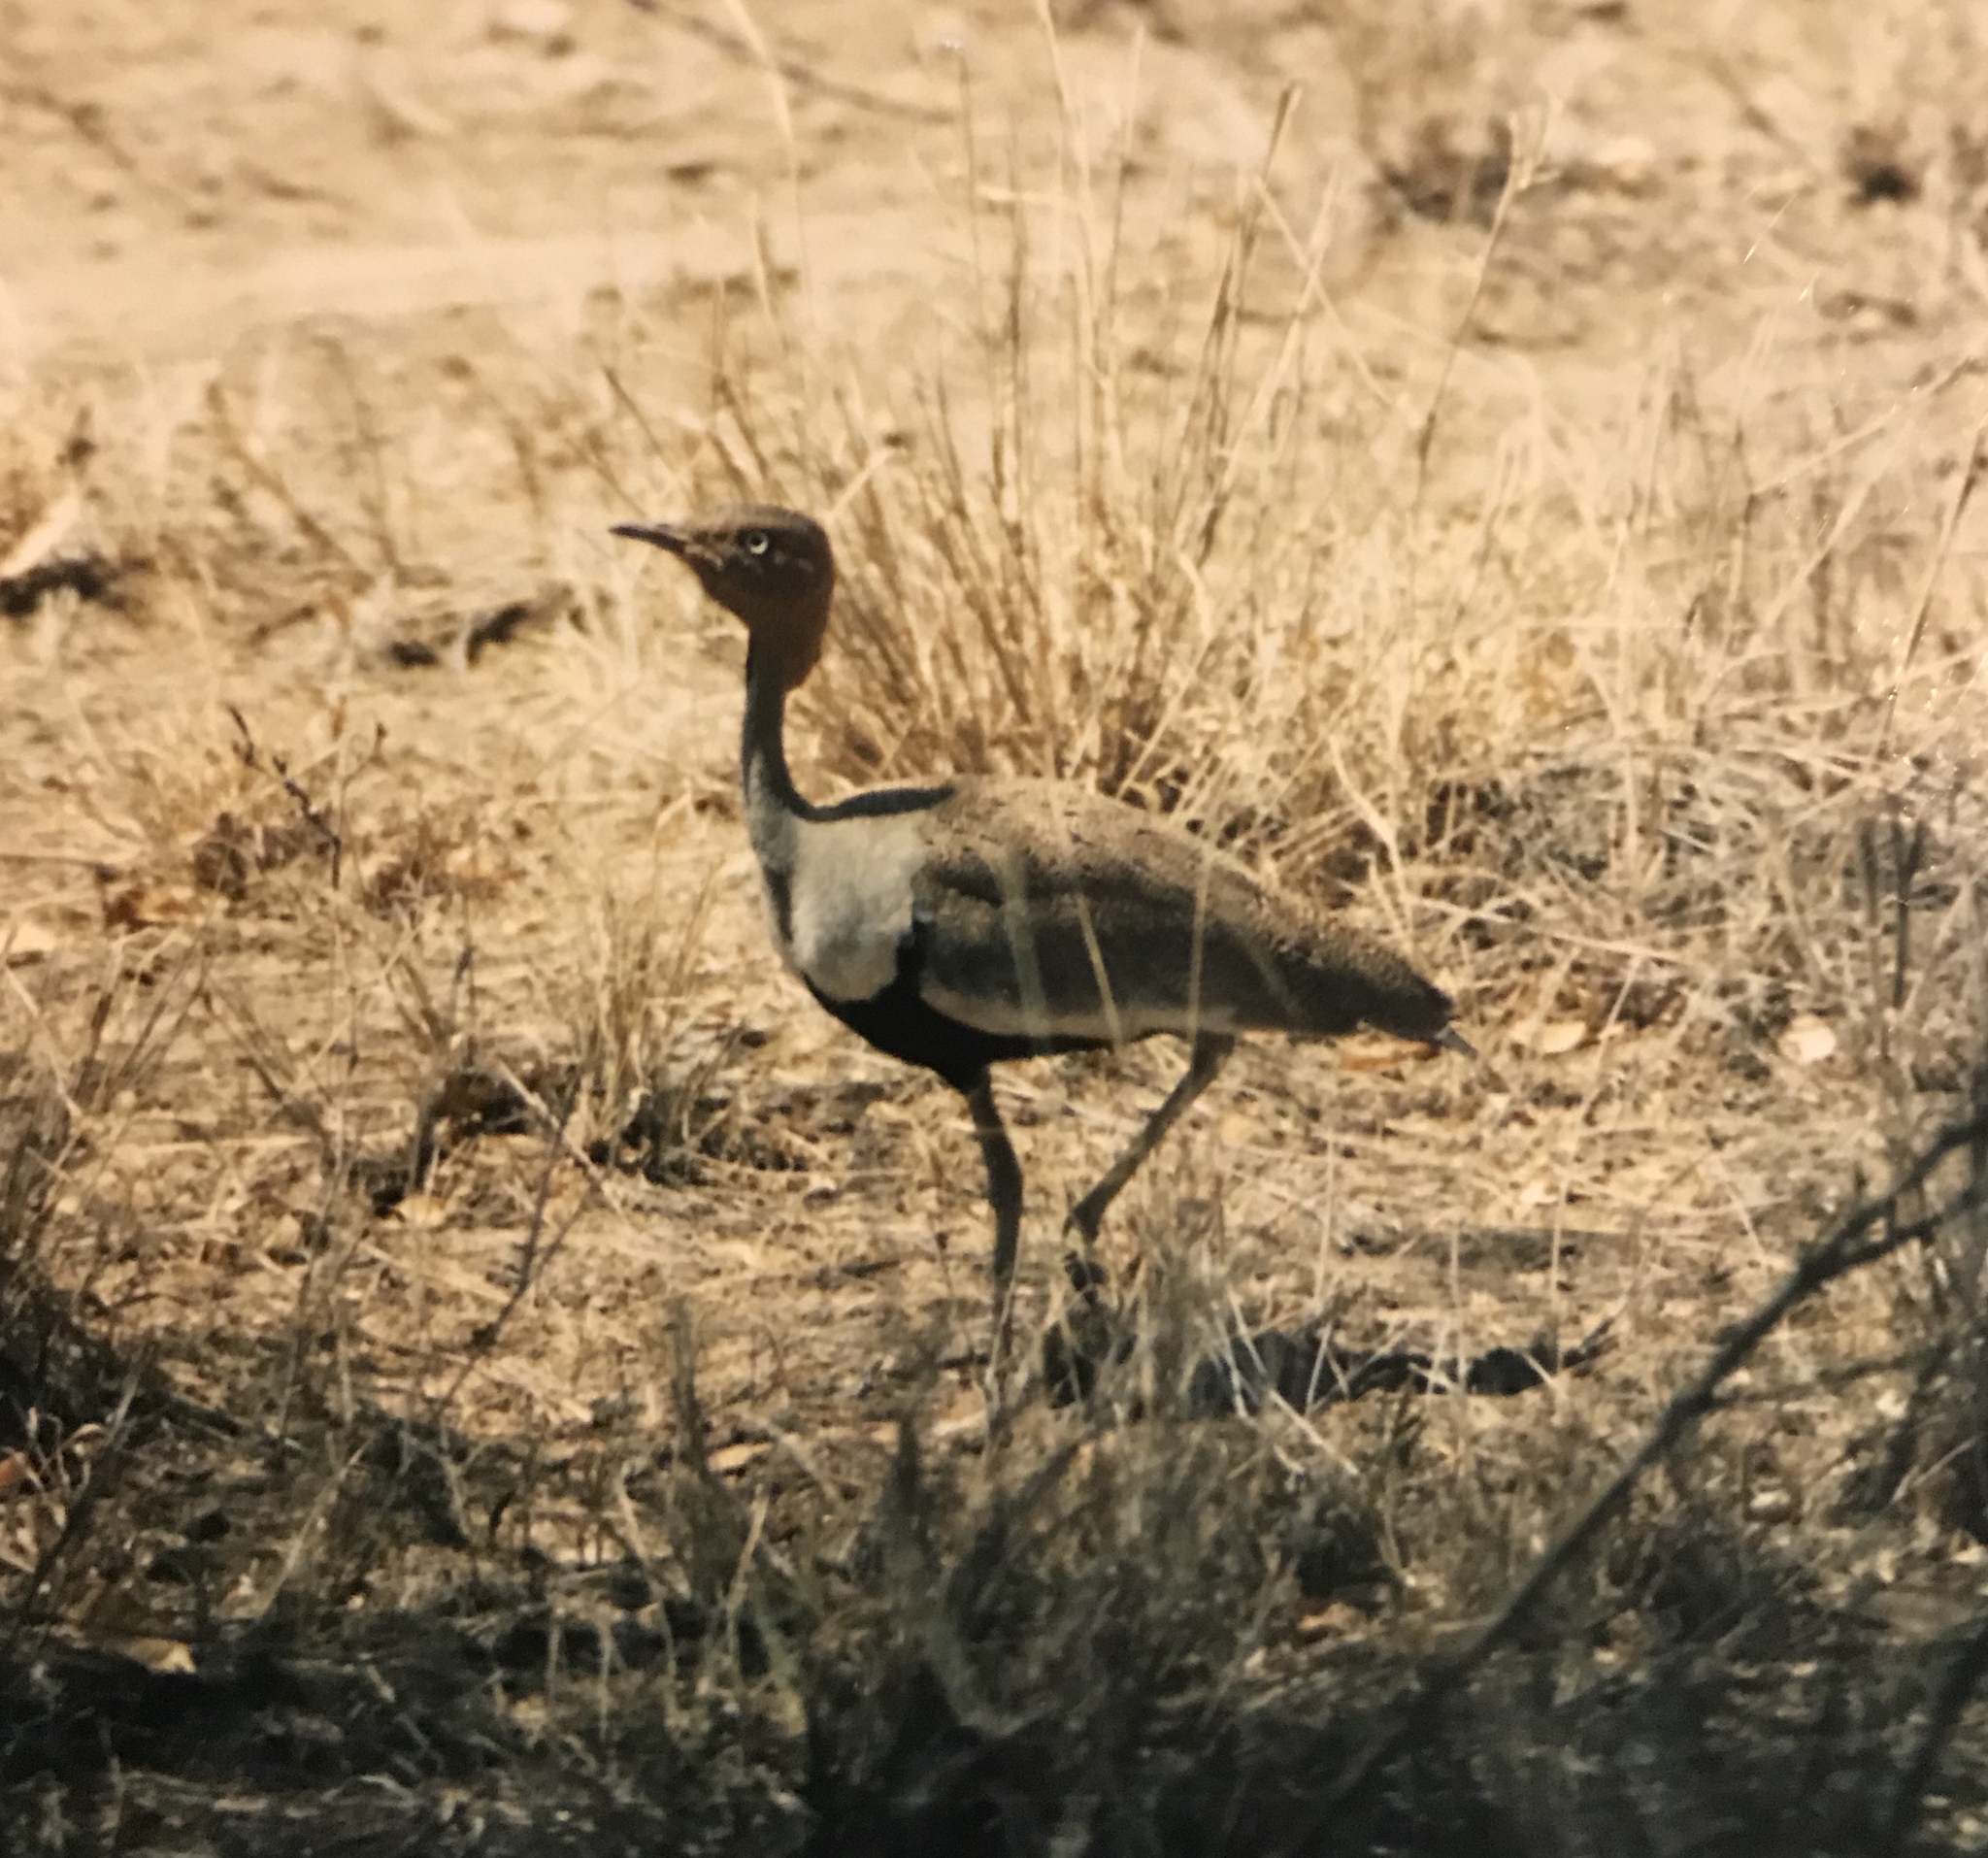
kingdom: Animalia
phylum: Chordata
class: Aves
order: Otidiformes
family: Otididae
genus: Lophotis
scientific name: Lophotis gindiana
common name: Buff-crested bustard
